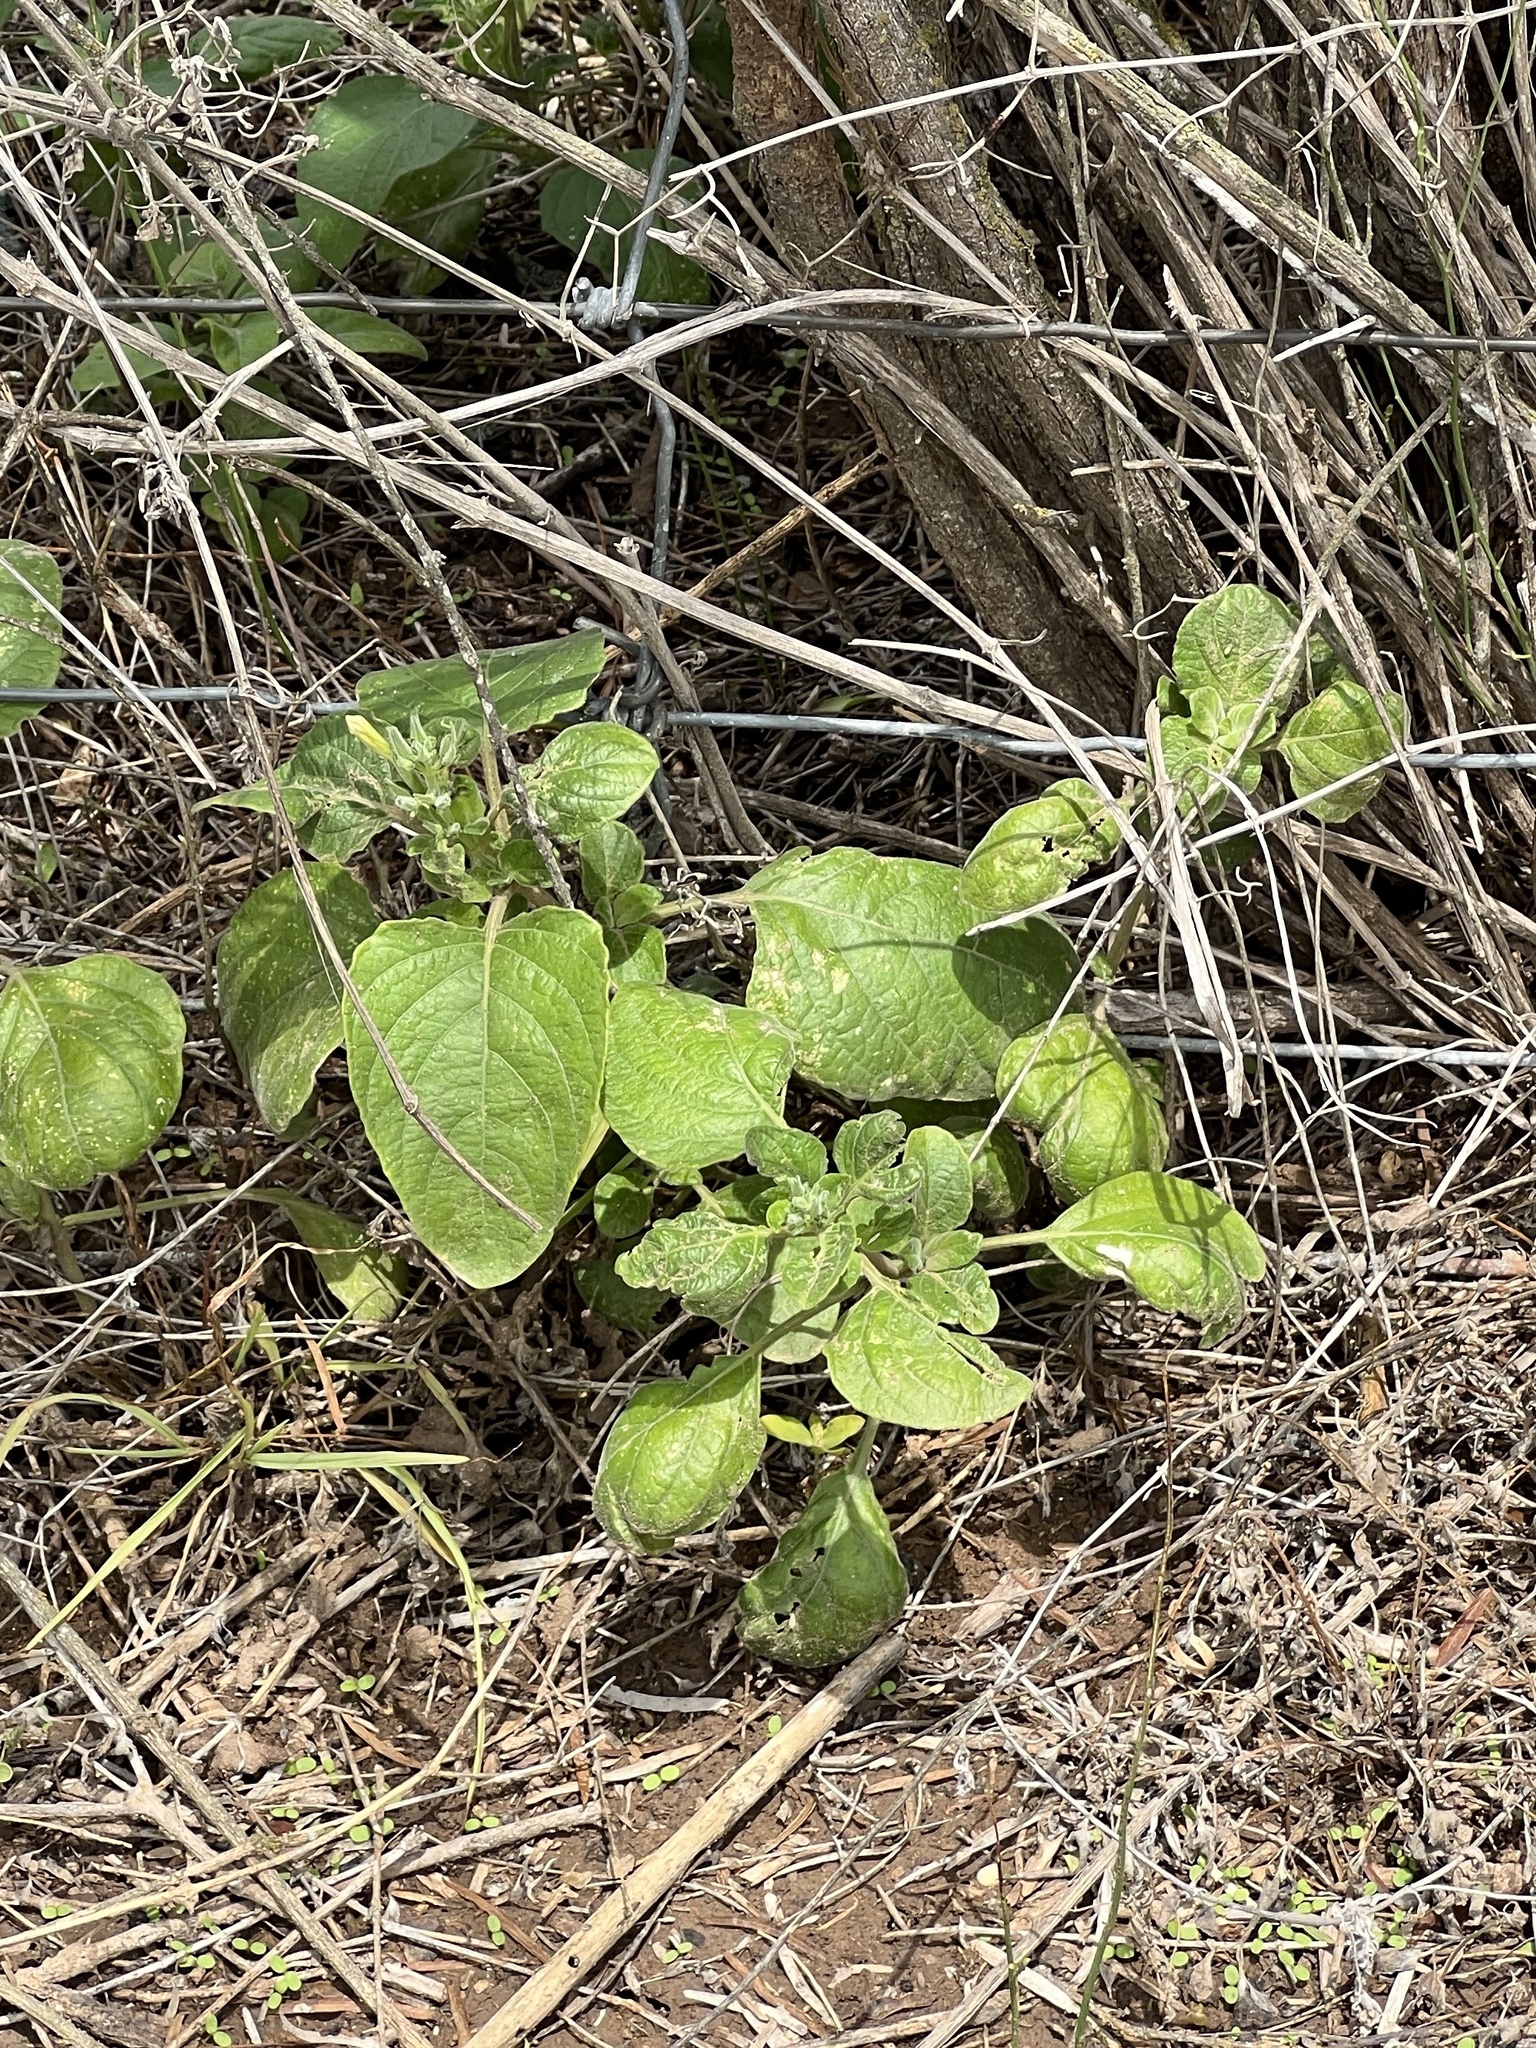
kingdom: Plantae
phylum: Tracheophyta
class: Magnoliopsida
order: Lamiales
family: Acanthaceae
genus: Ruellia
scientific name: Ruellia ciliatiflora
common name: Hairyflower wild petunia
